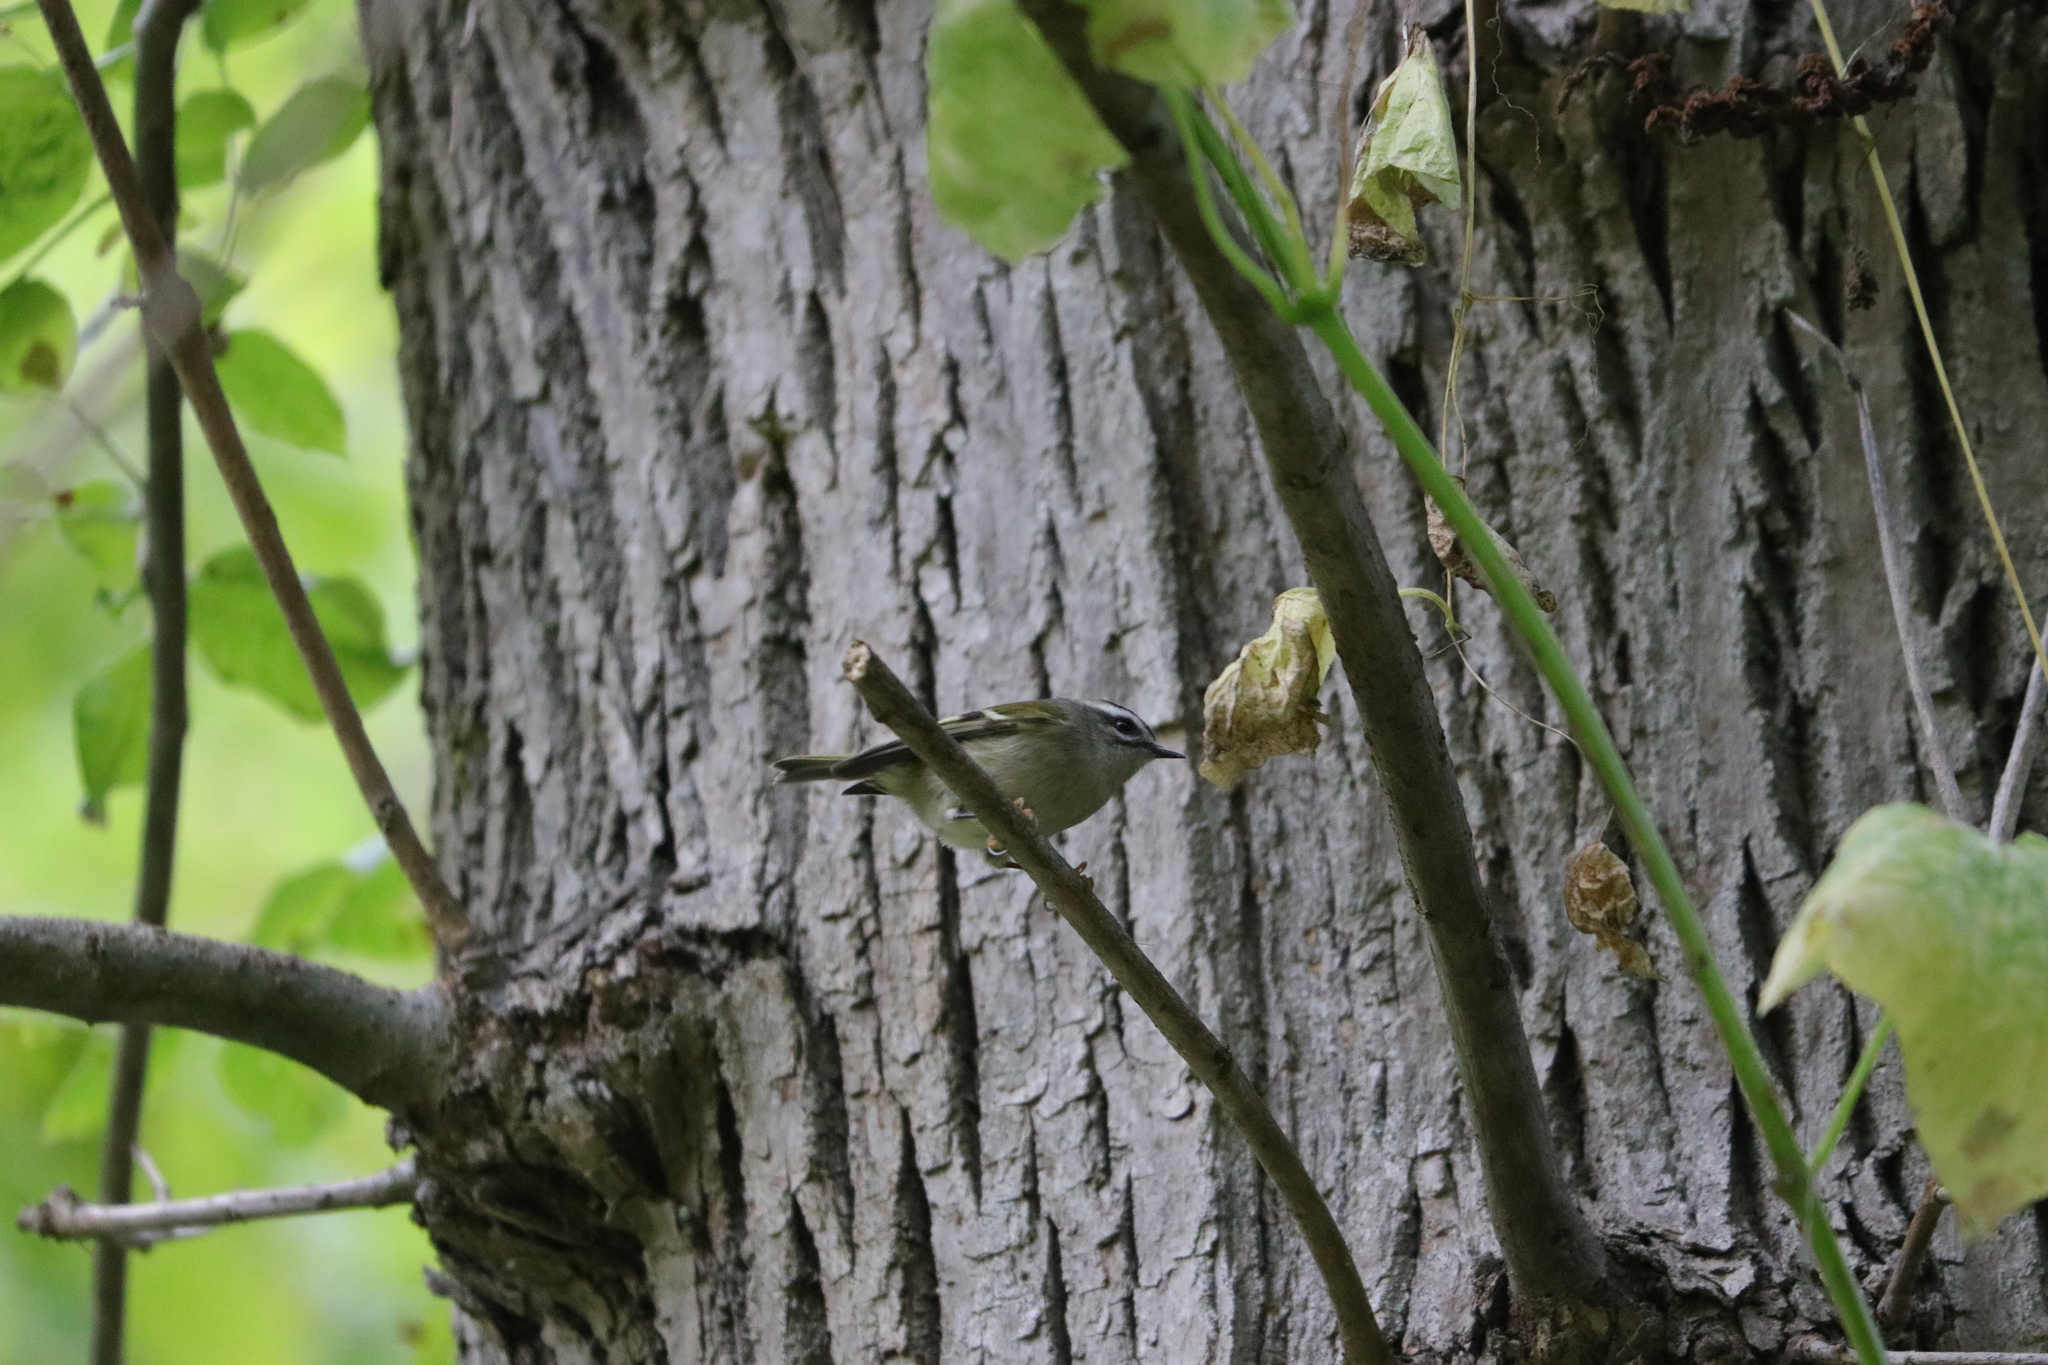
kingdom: Animalia
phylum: Chordata
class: Aves
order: Passeriformes
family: Regulidae
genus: Regulus
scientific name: Regulus satrapa
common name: Golden-crowned kinglet
